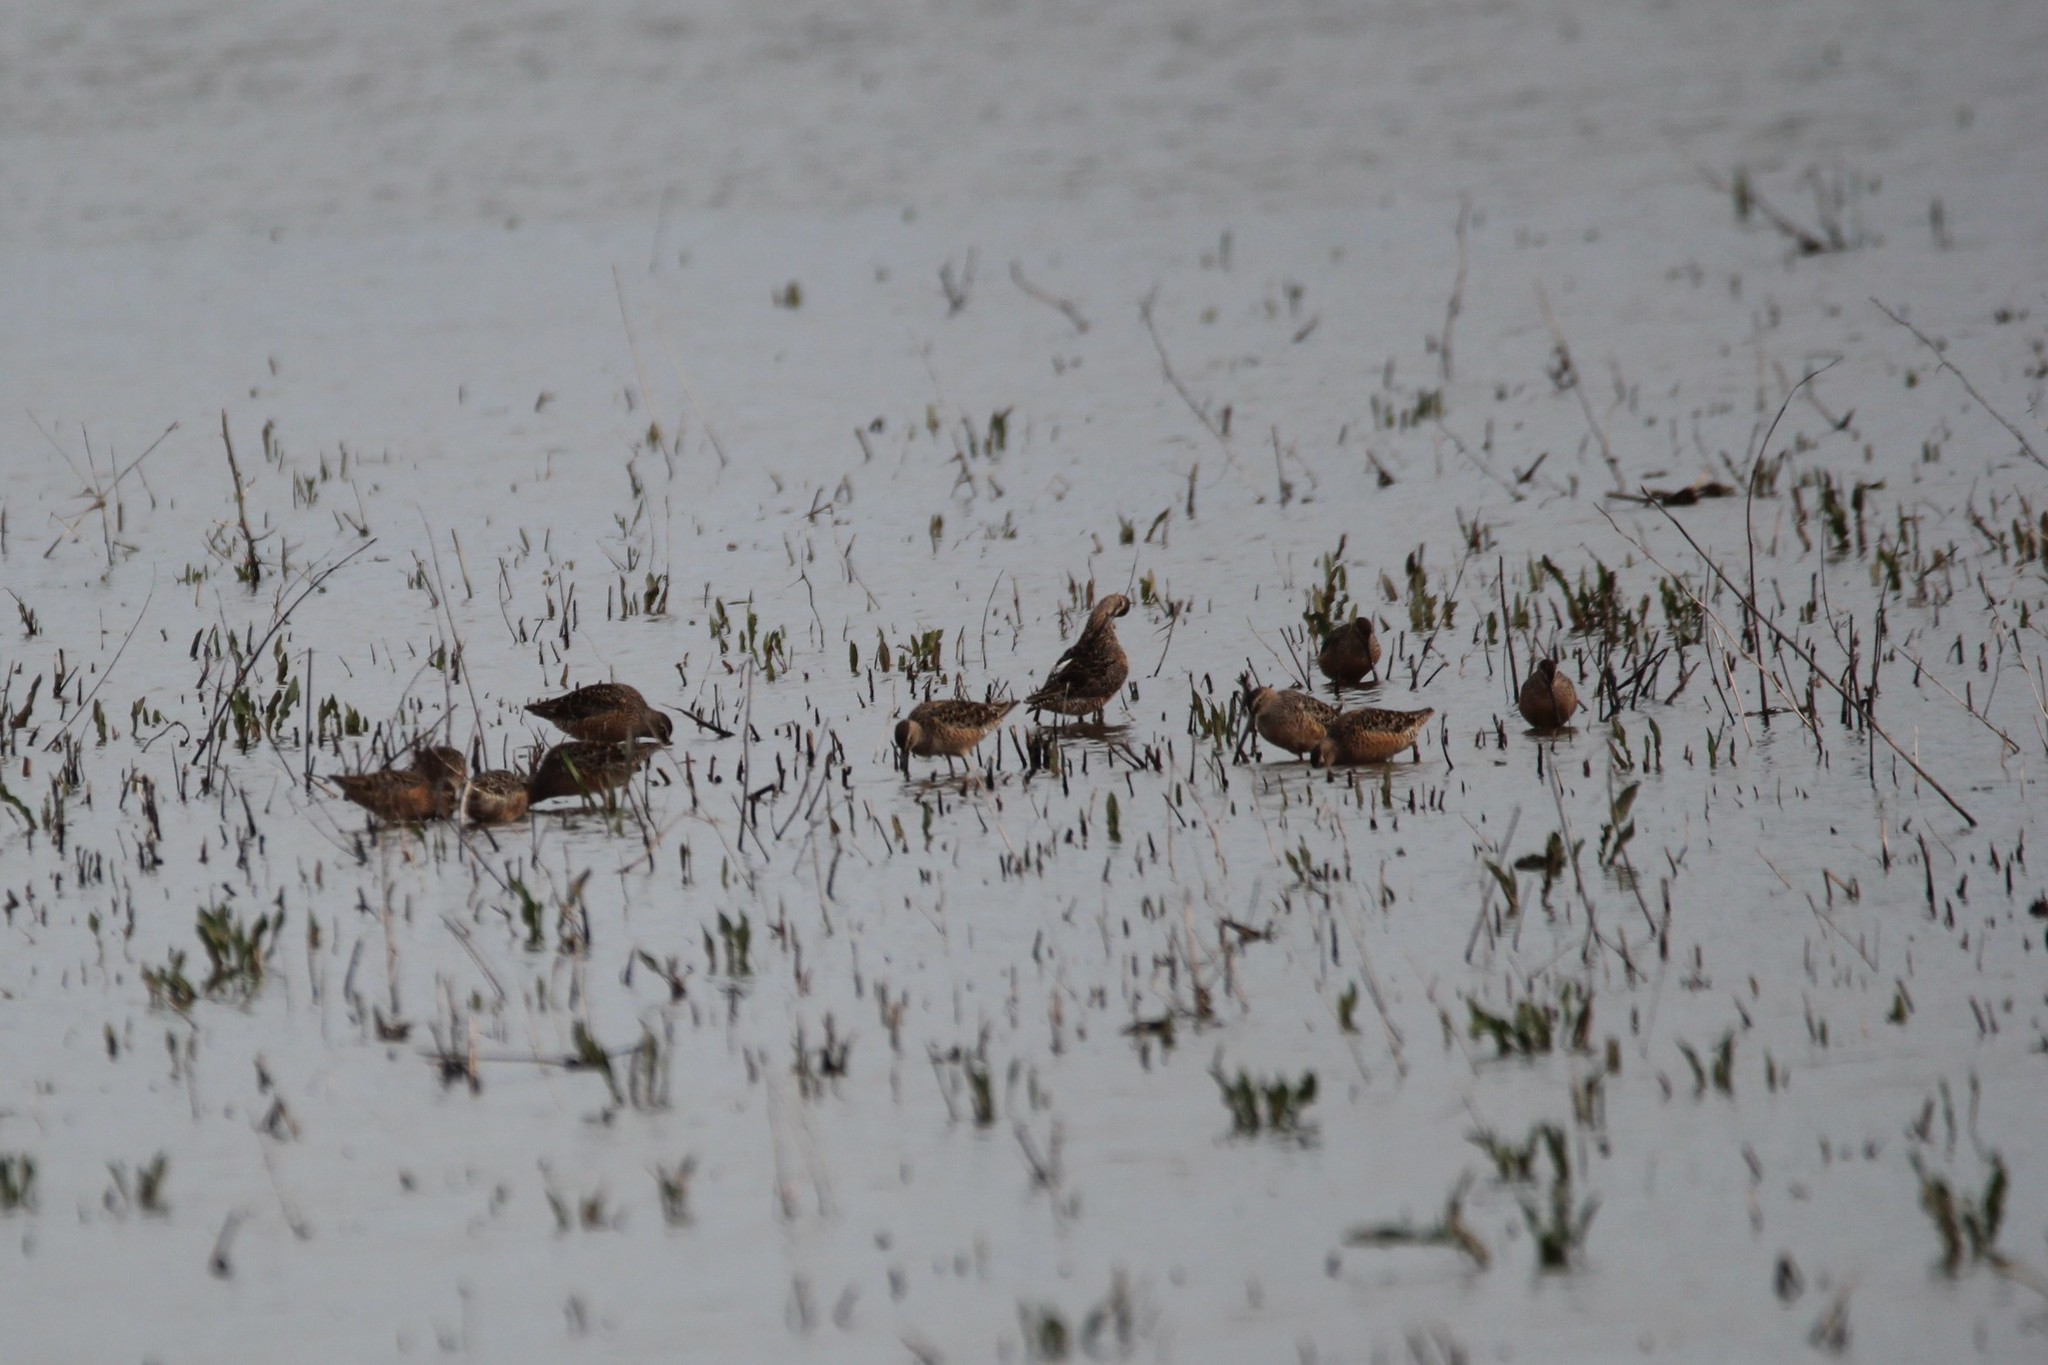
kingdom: Animalia
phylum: Chordata
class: Aves
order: Charadriiformes
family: Scolopacidae
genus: Limnodromus
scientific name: Limnodromus scolopaceus
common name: Long-billed dowitcher
